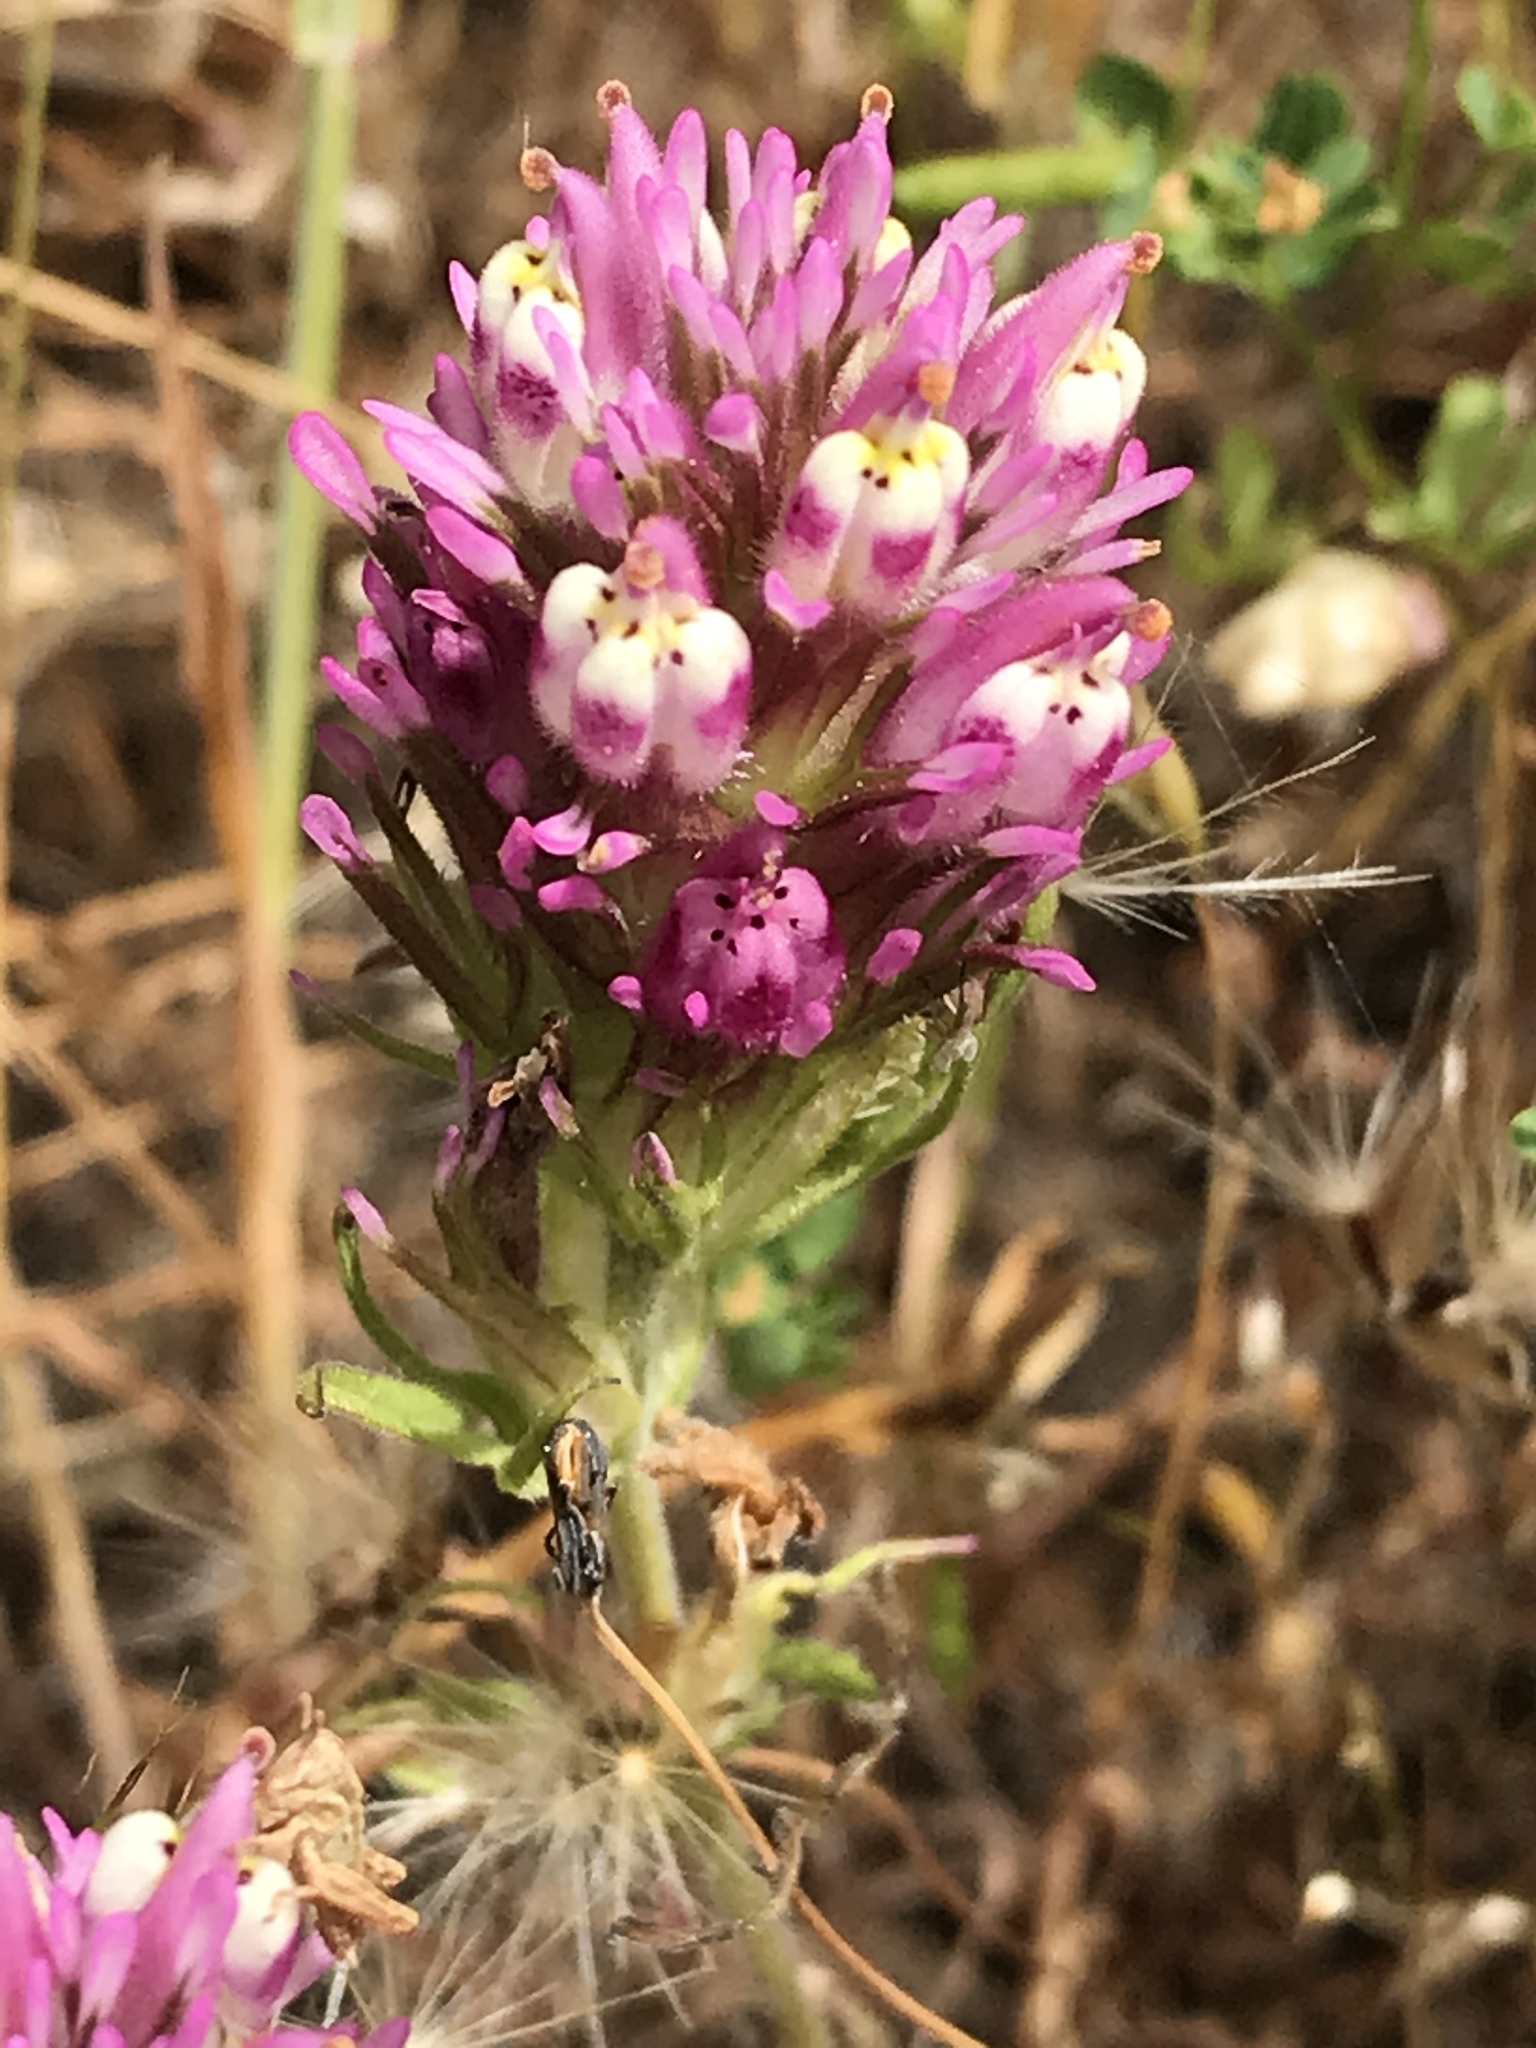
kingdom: Plantae
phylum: Tracheophyta
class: Magnoliopsida
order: Lamiales
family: Orobanchaceae
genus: Castilleja
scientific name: Castilleja densiflora
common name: Dense-flower indian paintbrush
